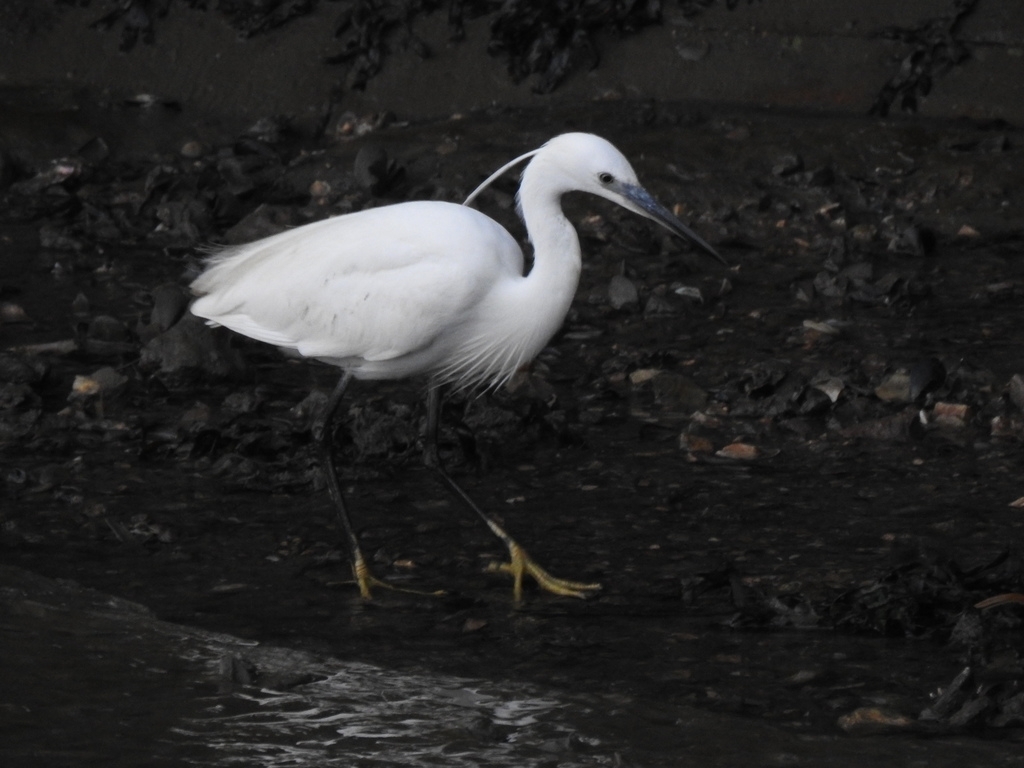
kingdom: Animalia
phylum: Chordata
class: Aves
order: Pelecaniformes
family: Ardeidae
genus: Egretta
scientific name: Egretta garzetta
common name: Little egret
